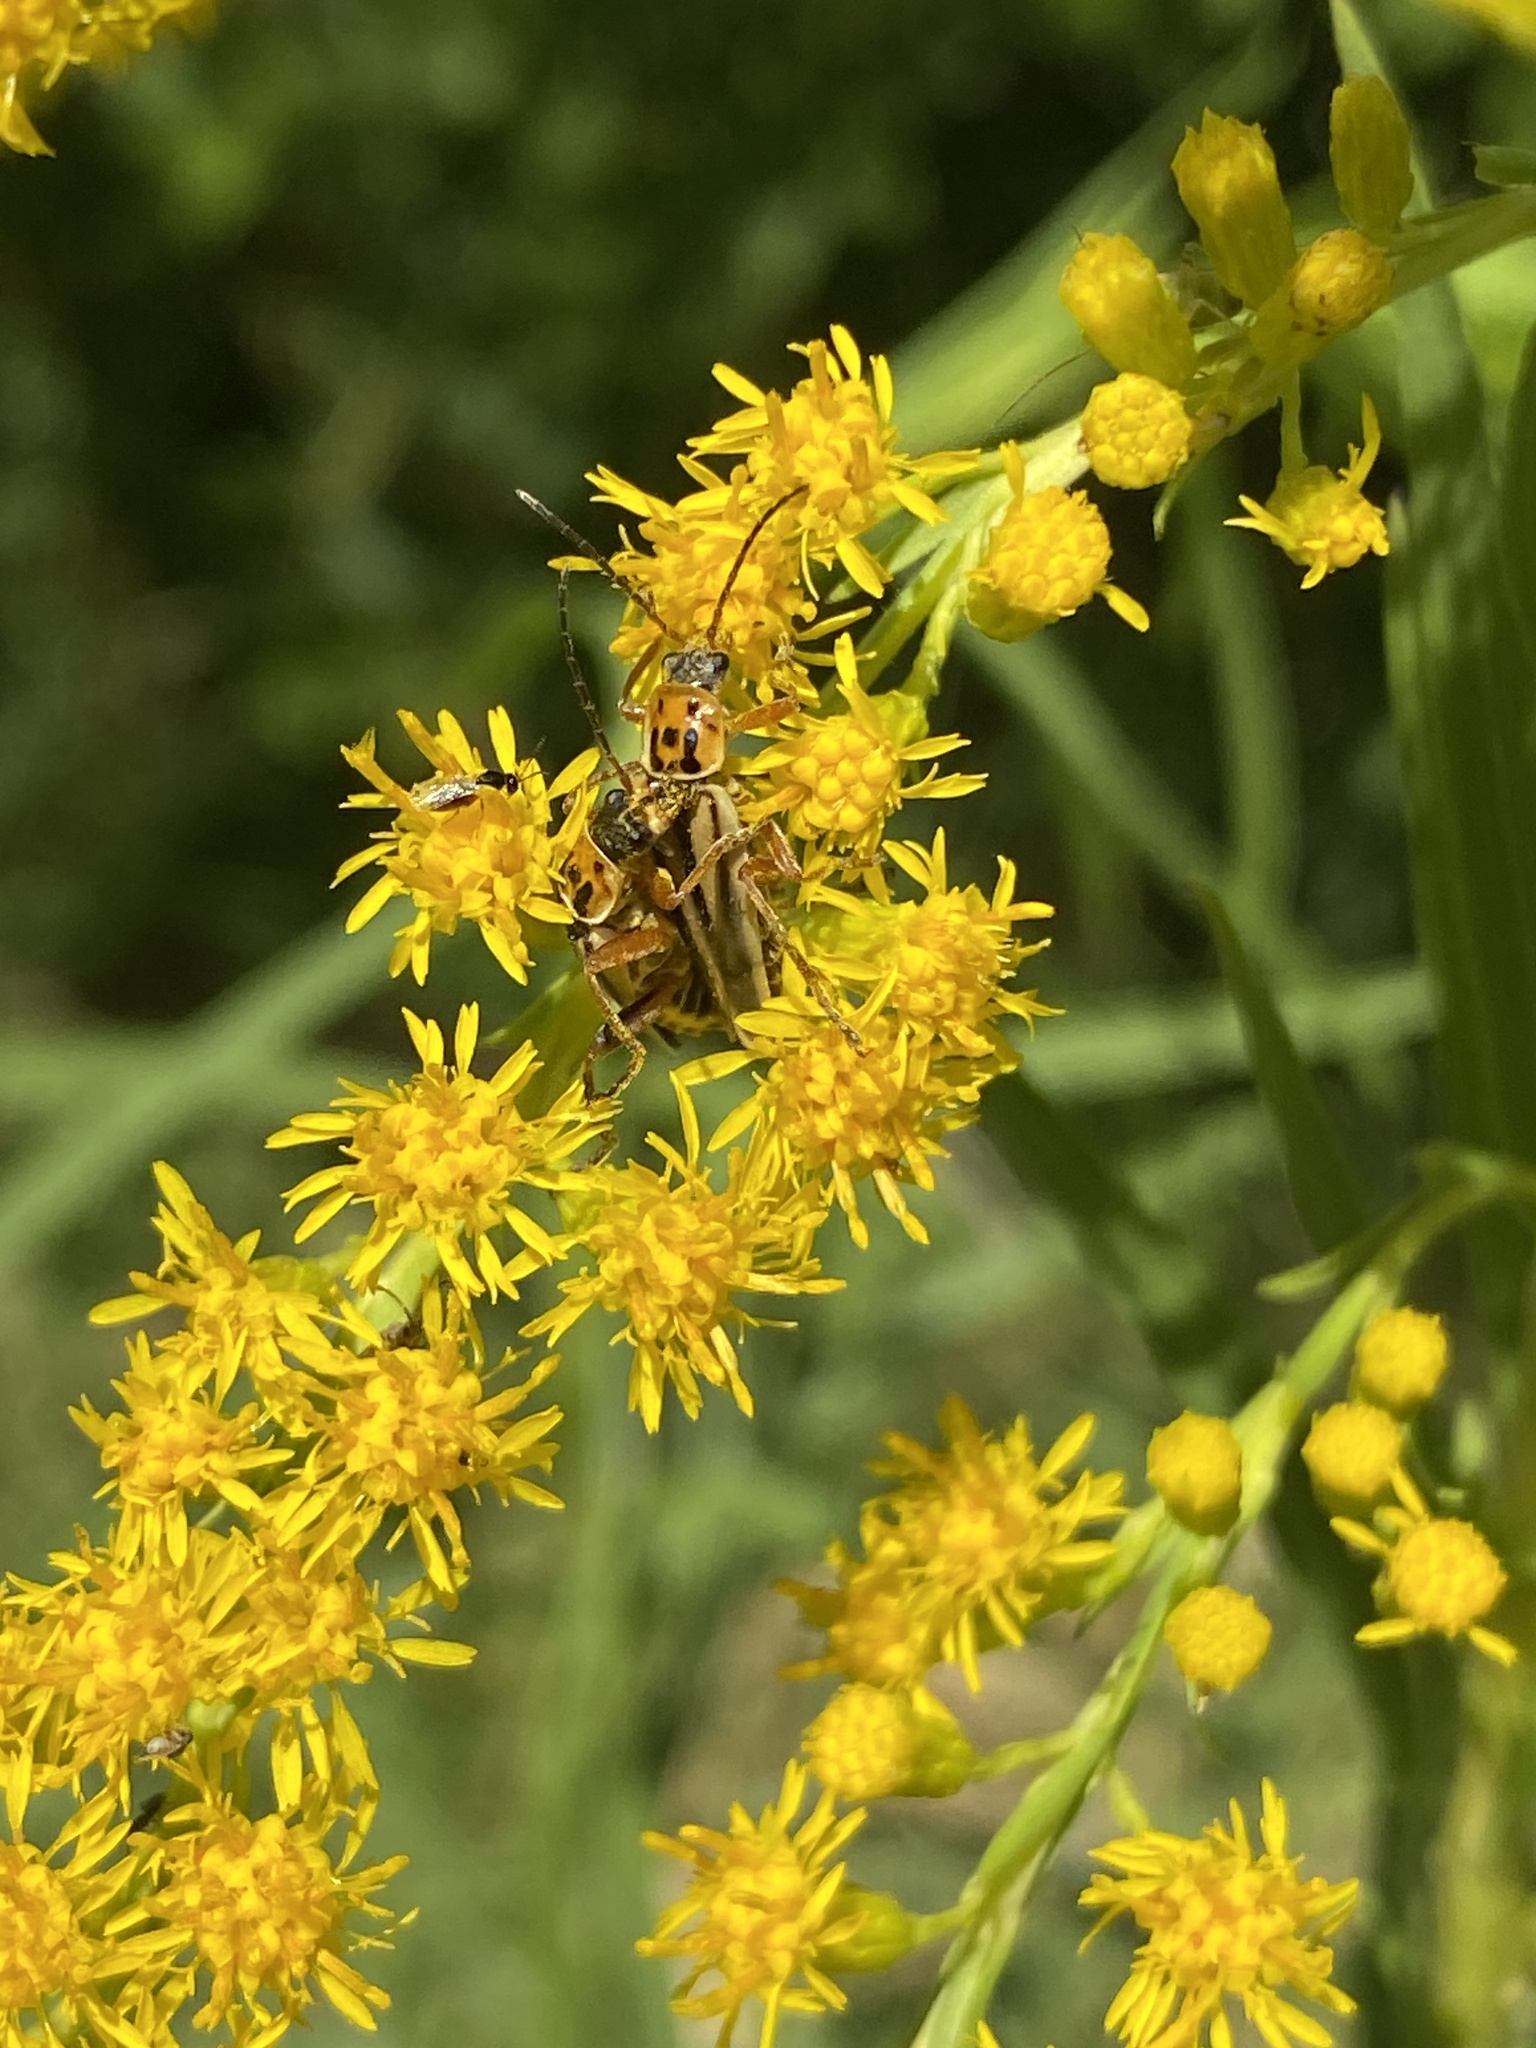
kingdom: Animalia
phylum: Arthropoda
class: Insecta
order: Coleoptera
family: Cantharidae
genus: Chauliognathus
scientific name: Chauliognathus
